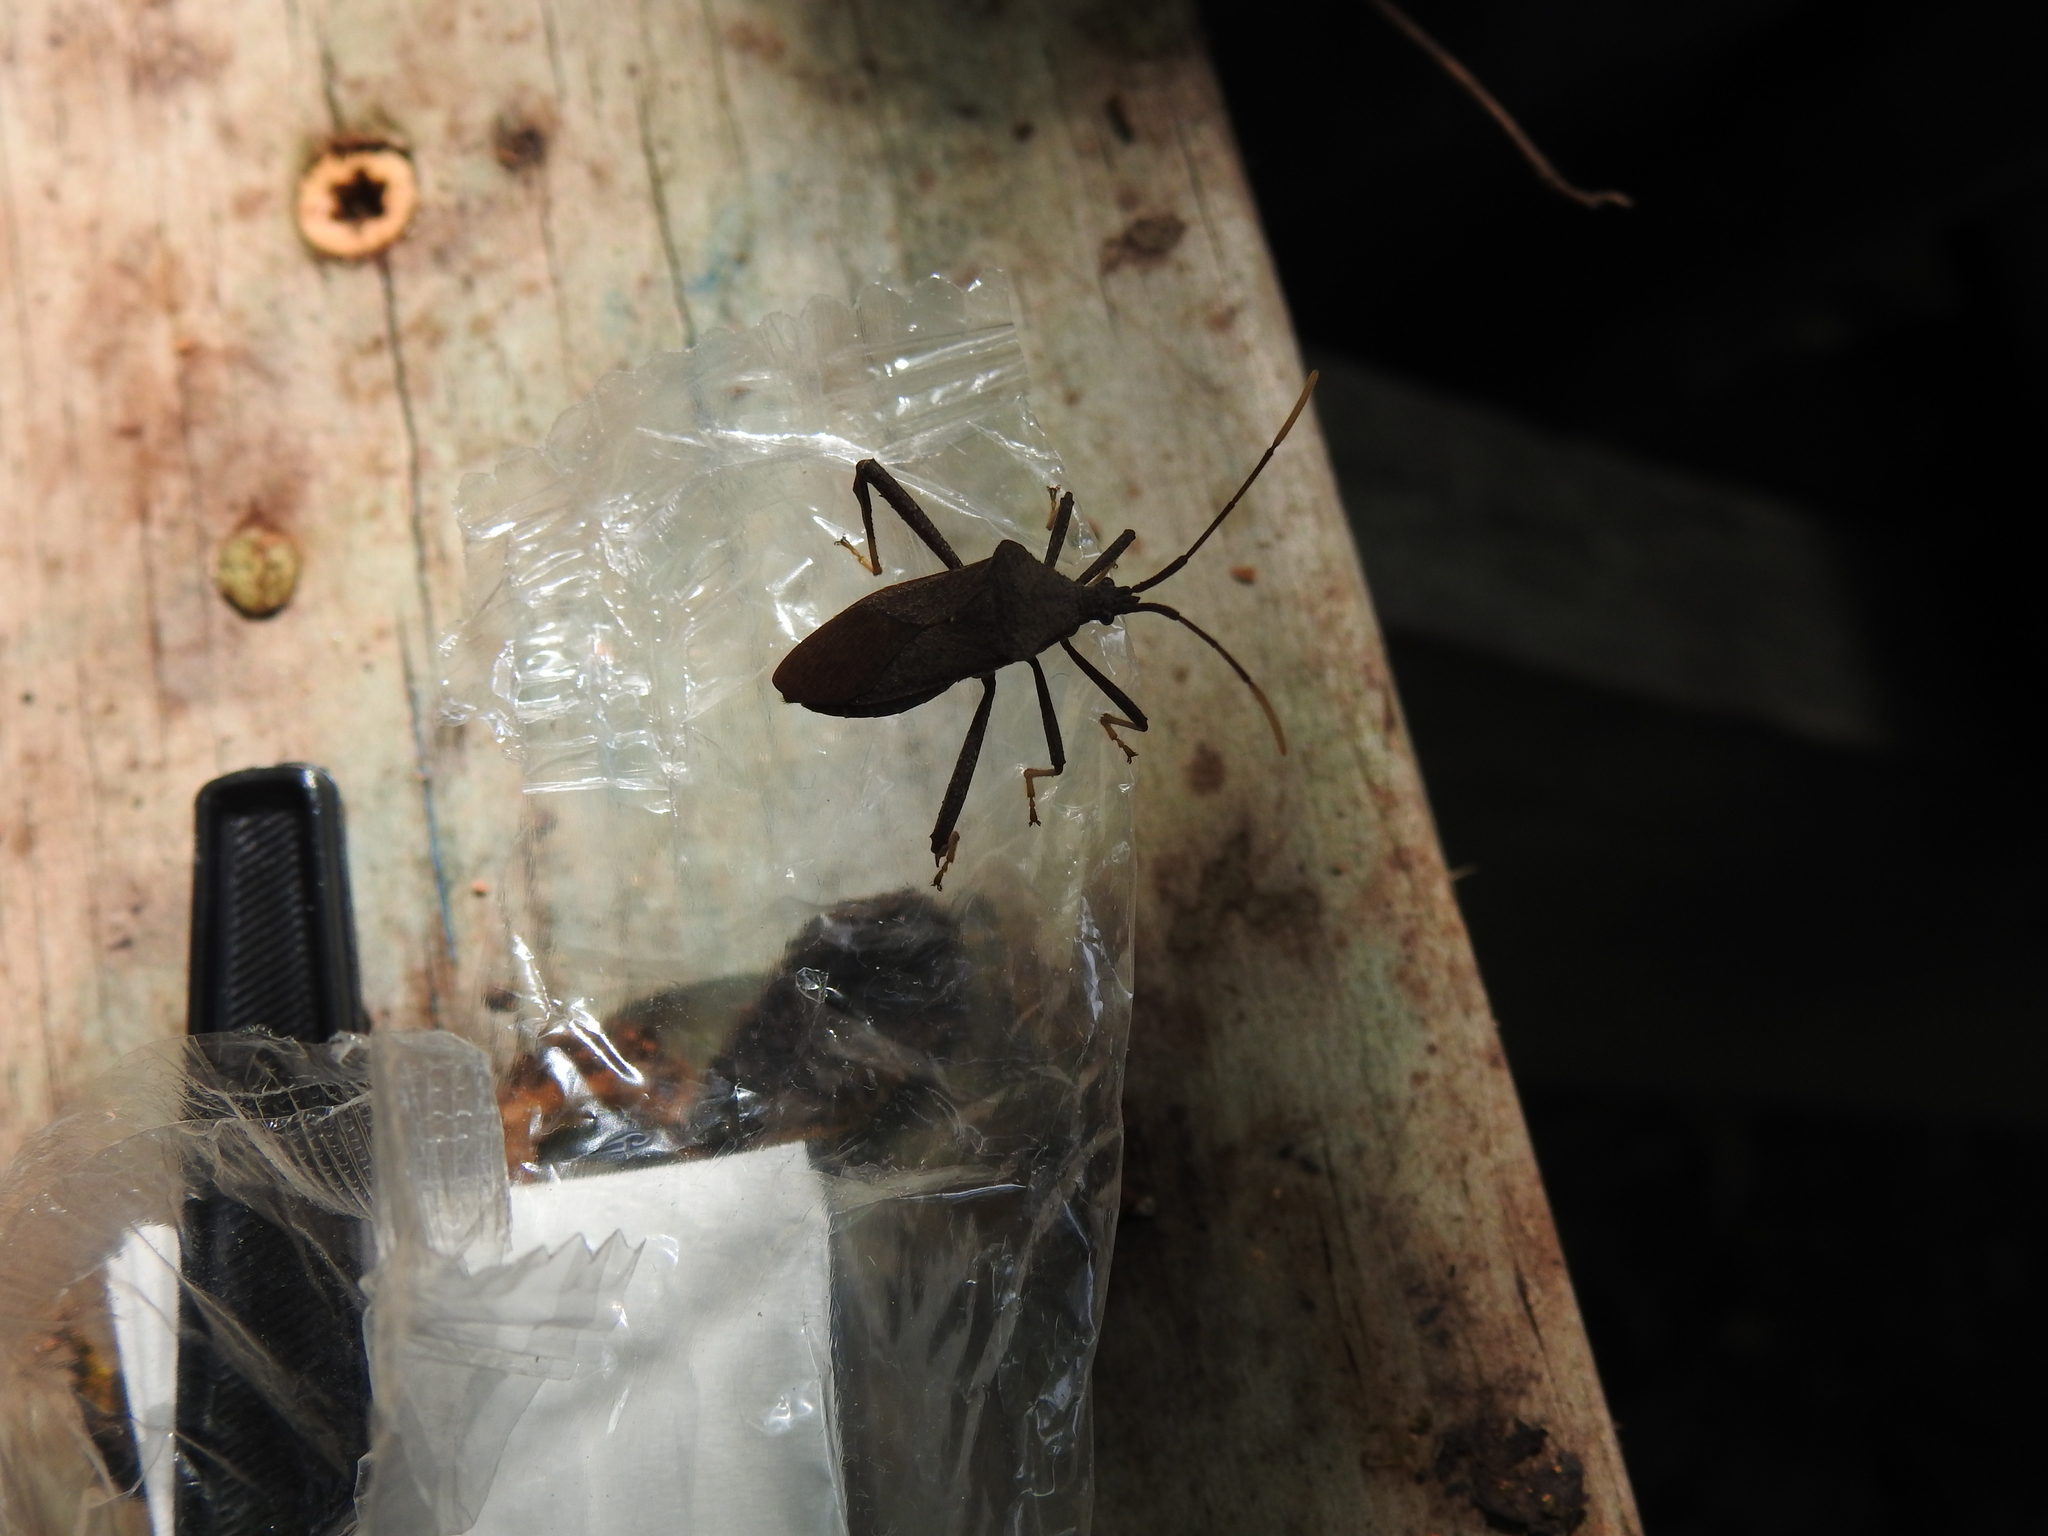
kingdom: Animalia
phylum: Arthropoda
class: Insecta
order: Hemiptera
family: Coreidae
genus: Acanthocephala
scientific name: Acanthocephala terminalis
